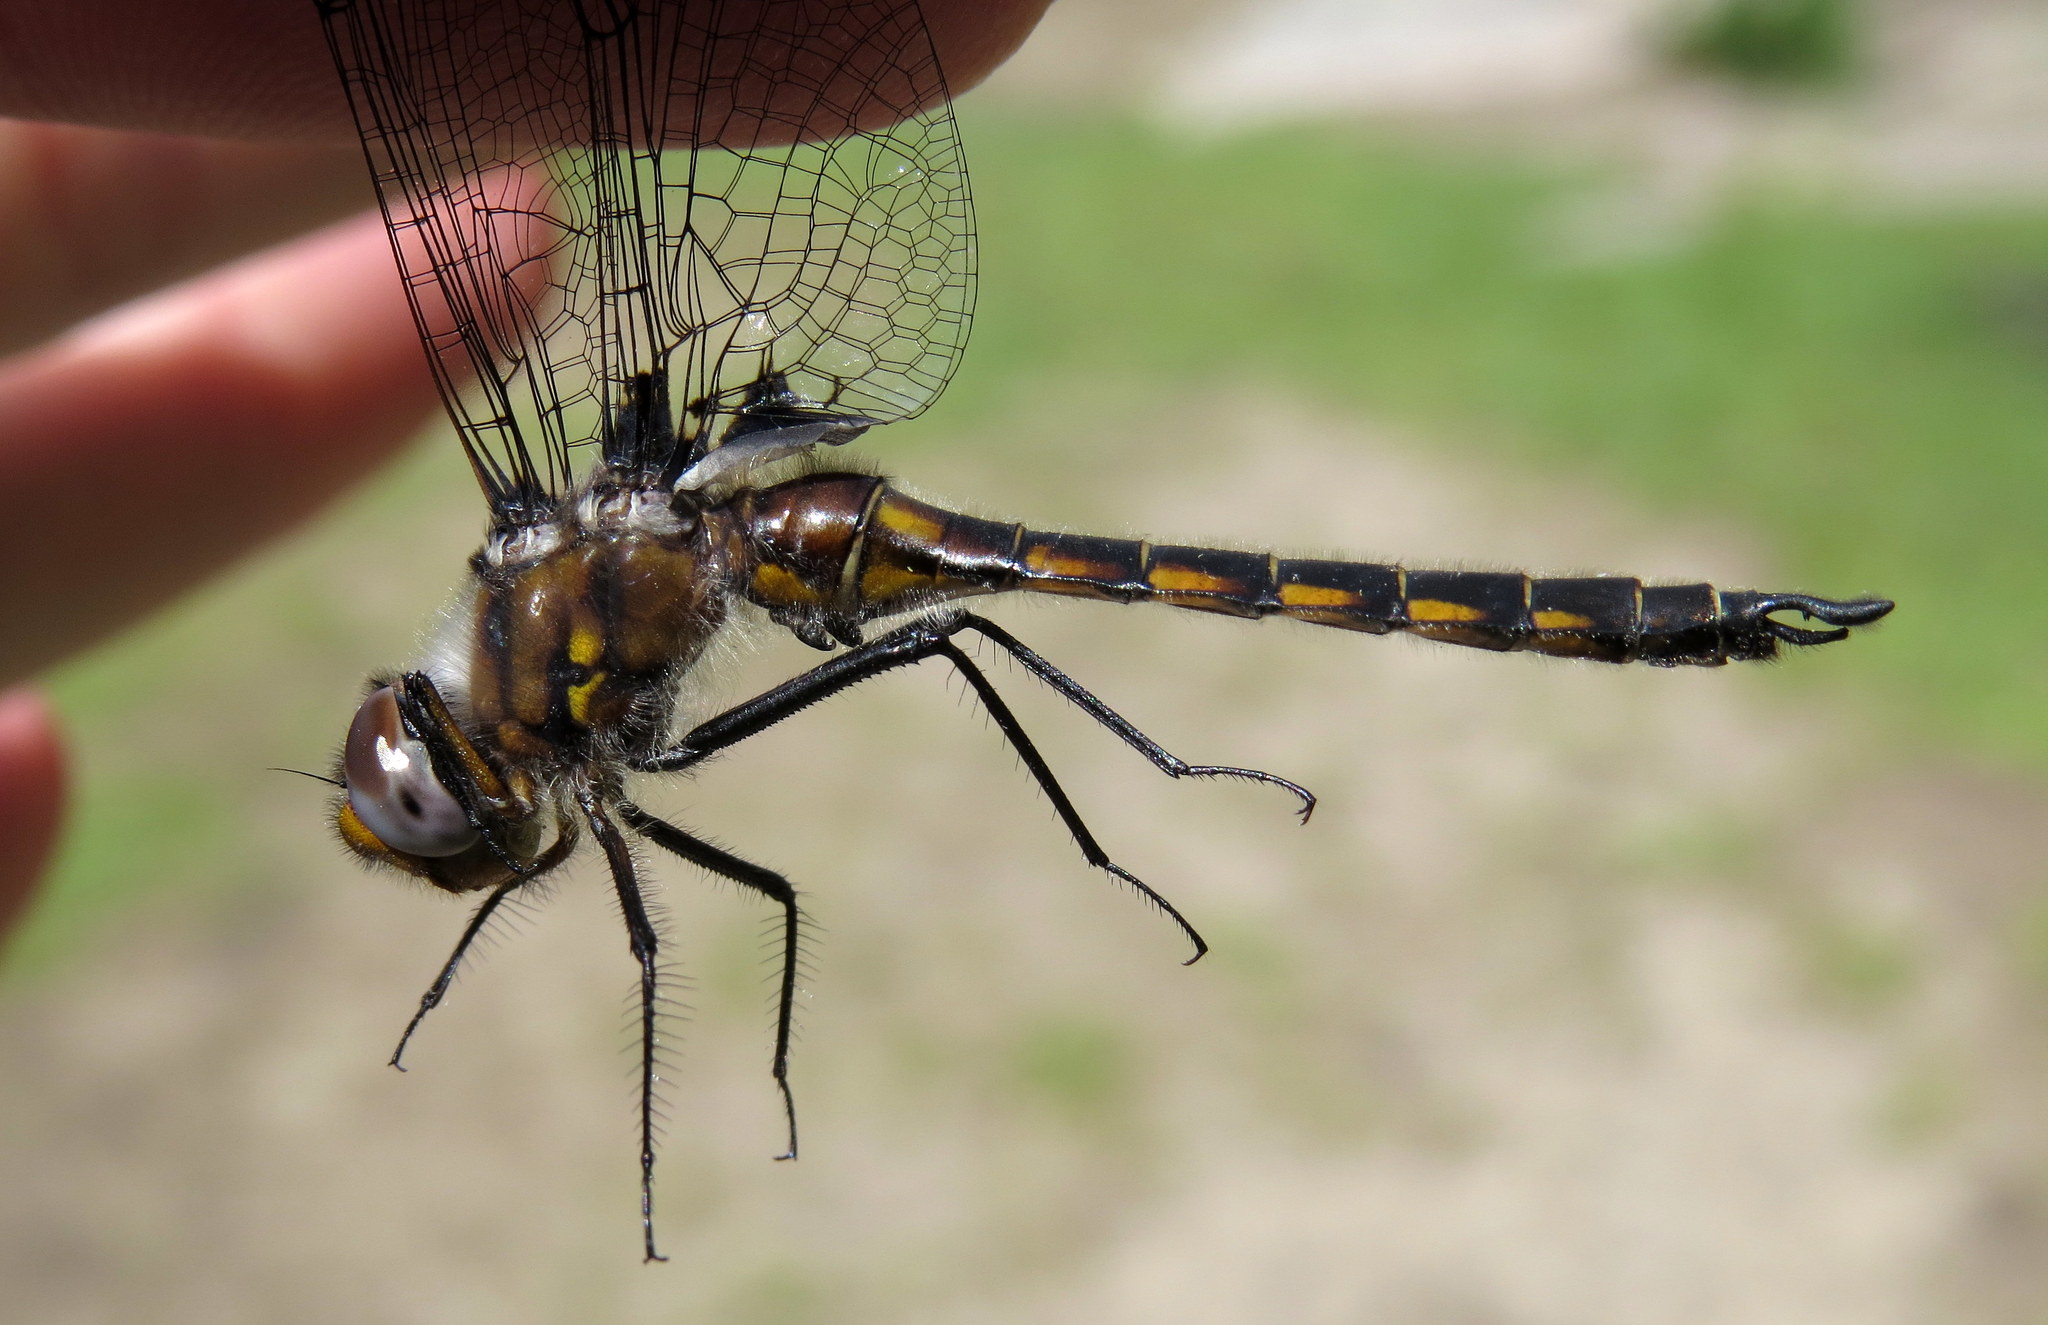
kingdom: Animalia
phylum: Arthropoda
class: Insecta
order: Odonata
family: Corduliidae
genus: Epitheca
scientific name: Epitheca spinigera
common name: Spiny baskettail
